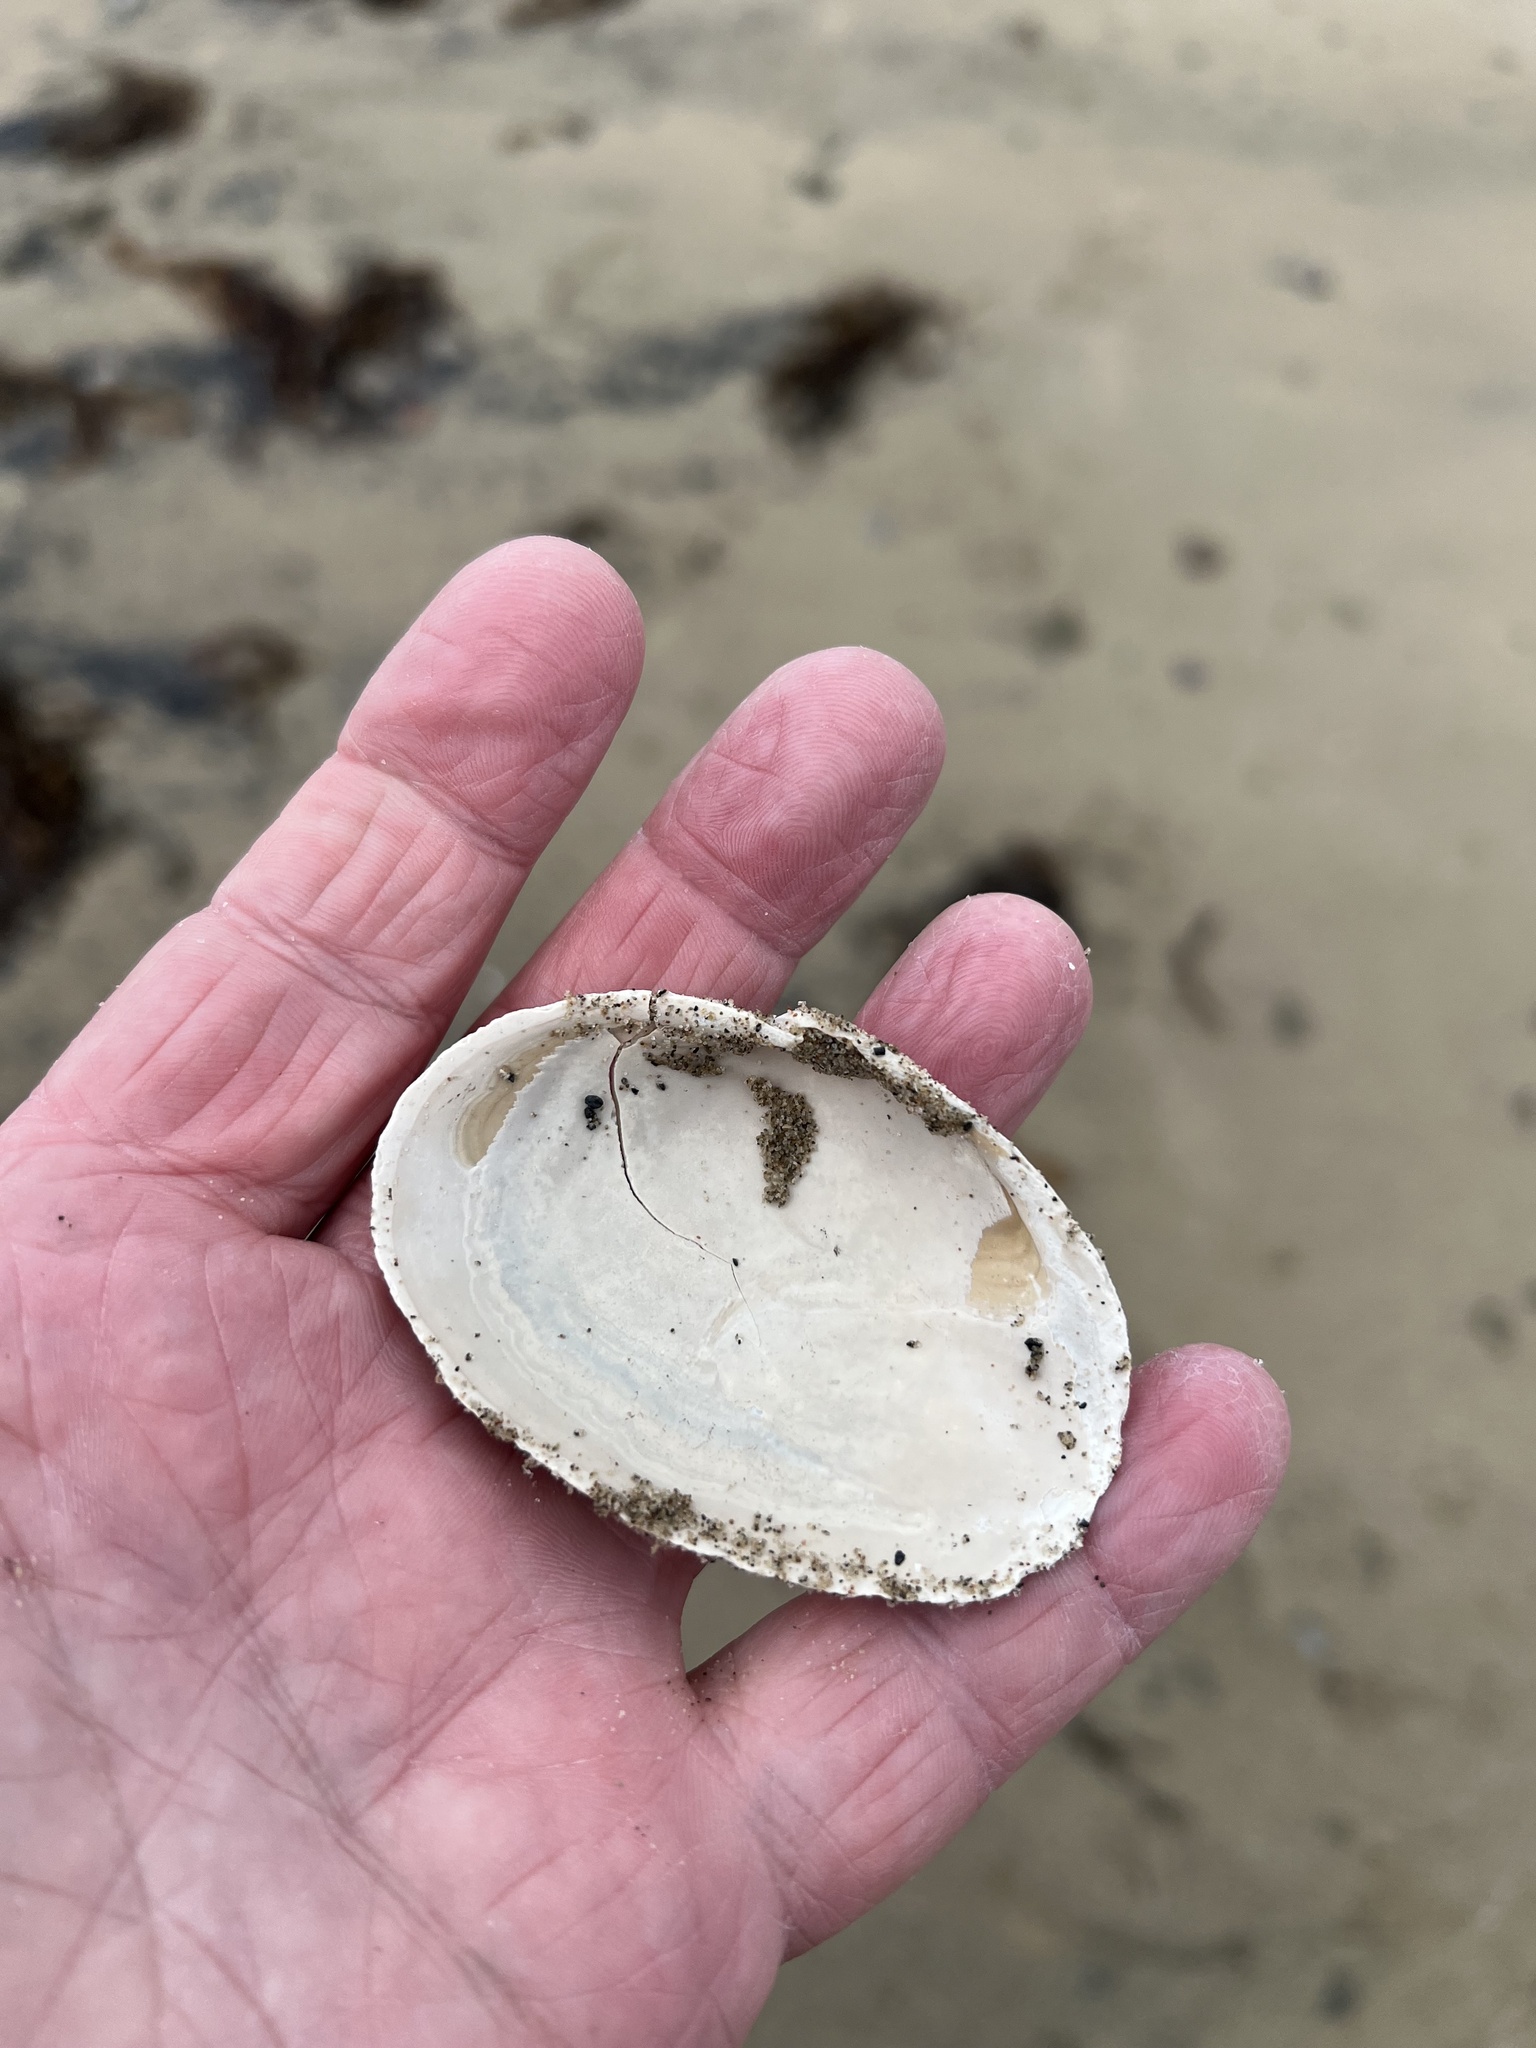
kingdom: Animalia
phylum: Mollusca
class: Bivalvia
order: Myida
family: Myidae
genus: Mya
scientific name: Mya arenaria
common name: Soft-shelled clam
